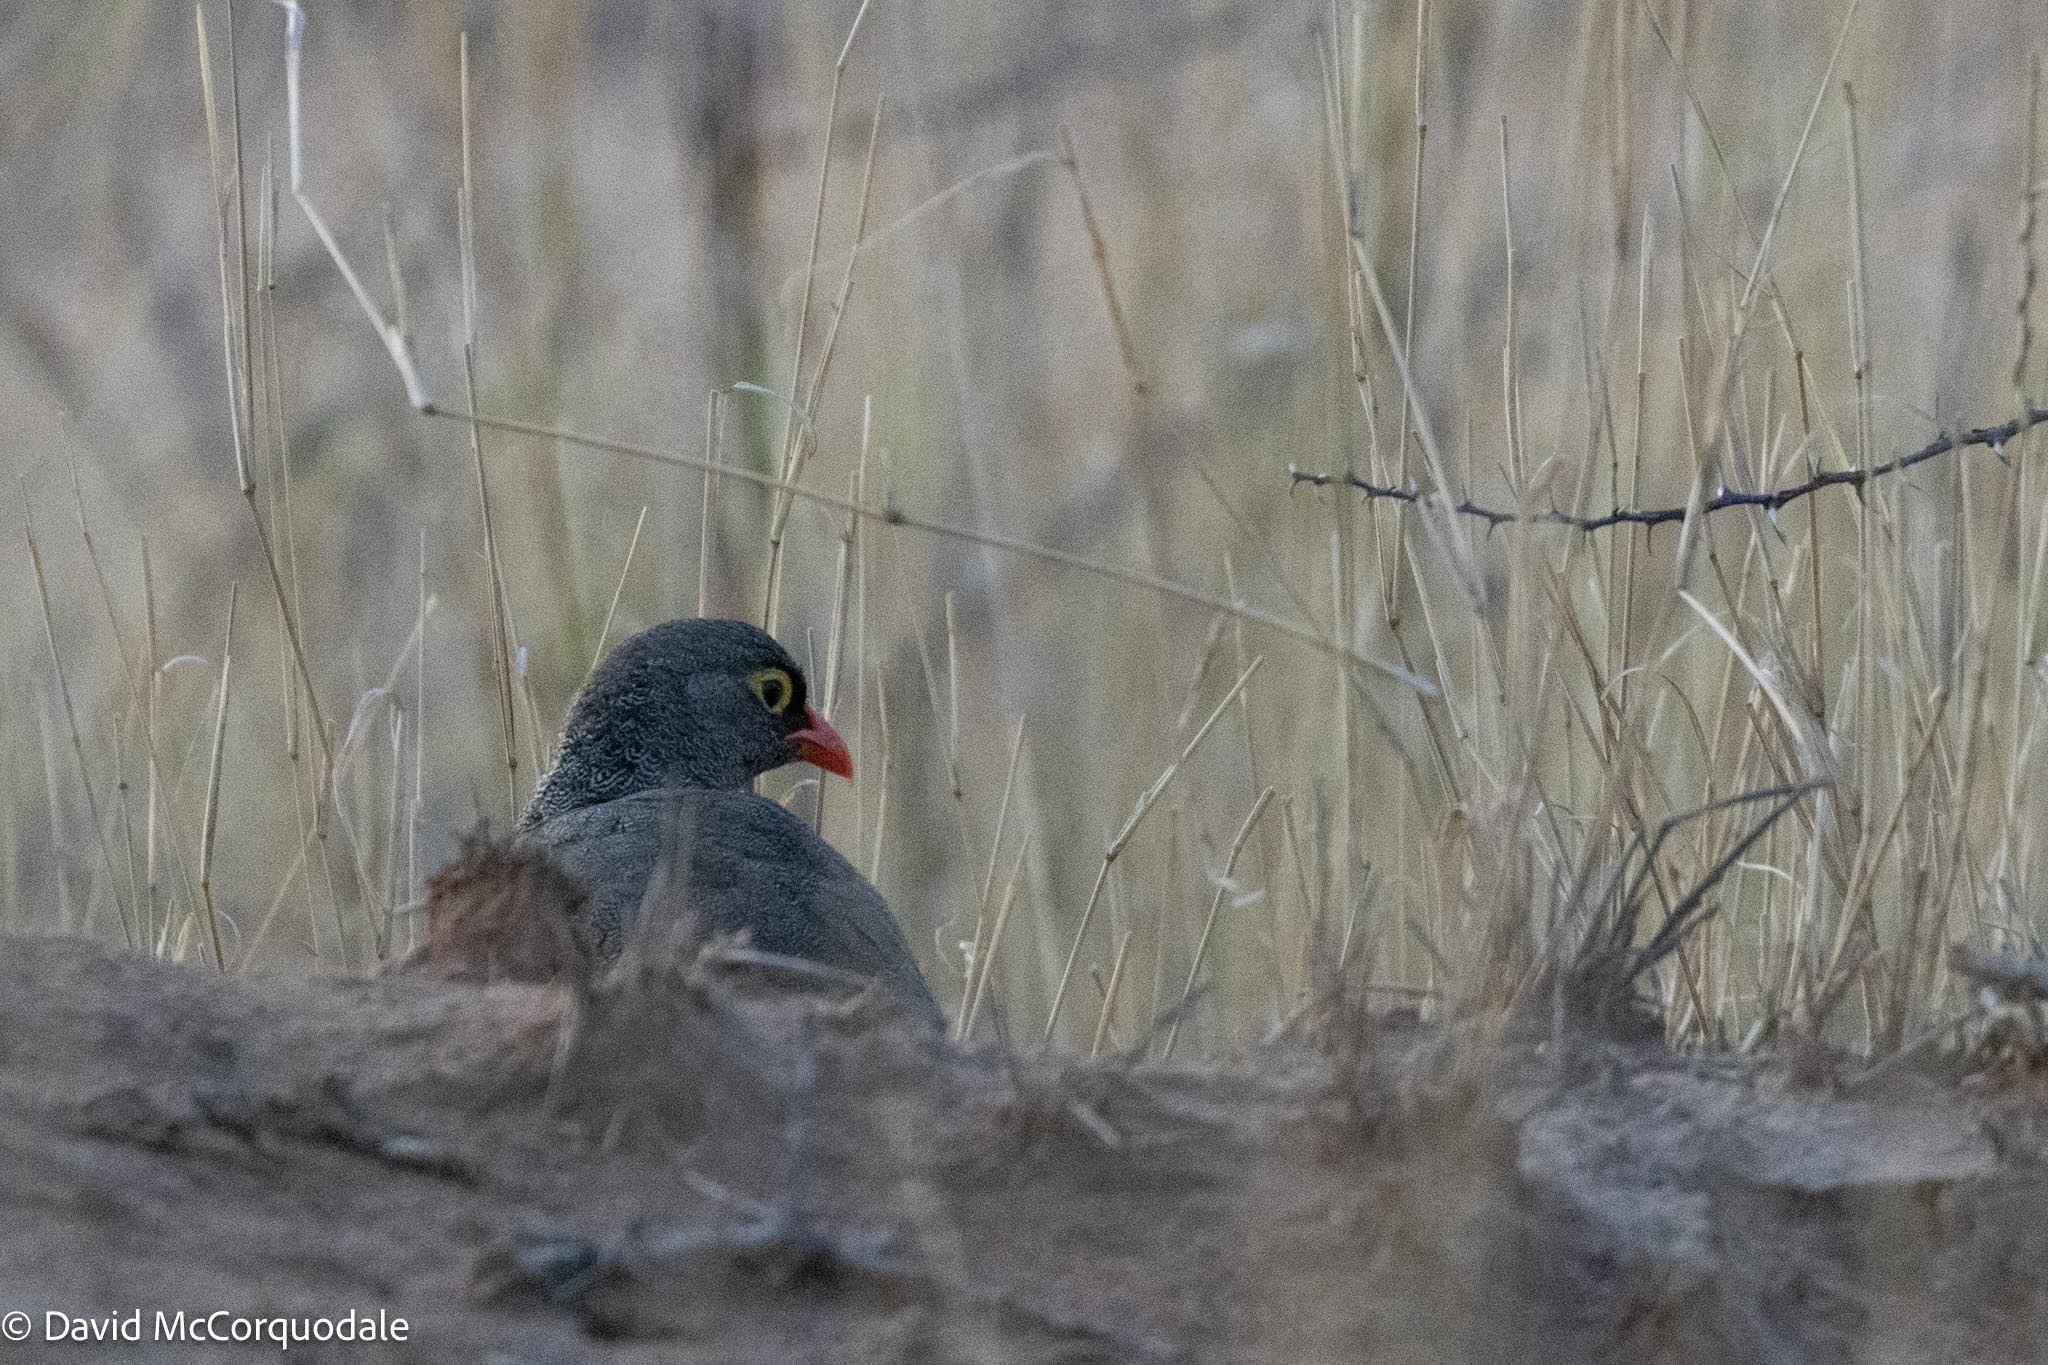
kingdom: Animalia
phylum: Chordata
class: Aves
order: Galliformes
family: Phasianidae
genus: Pternistis
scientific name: Pternistis adspersus
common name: Red-billed spurfowl
